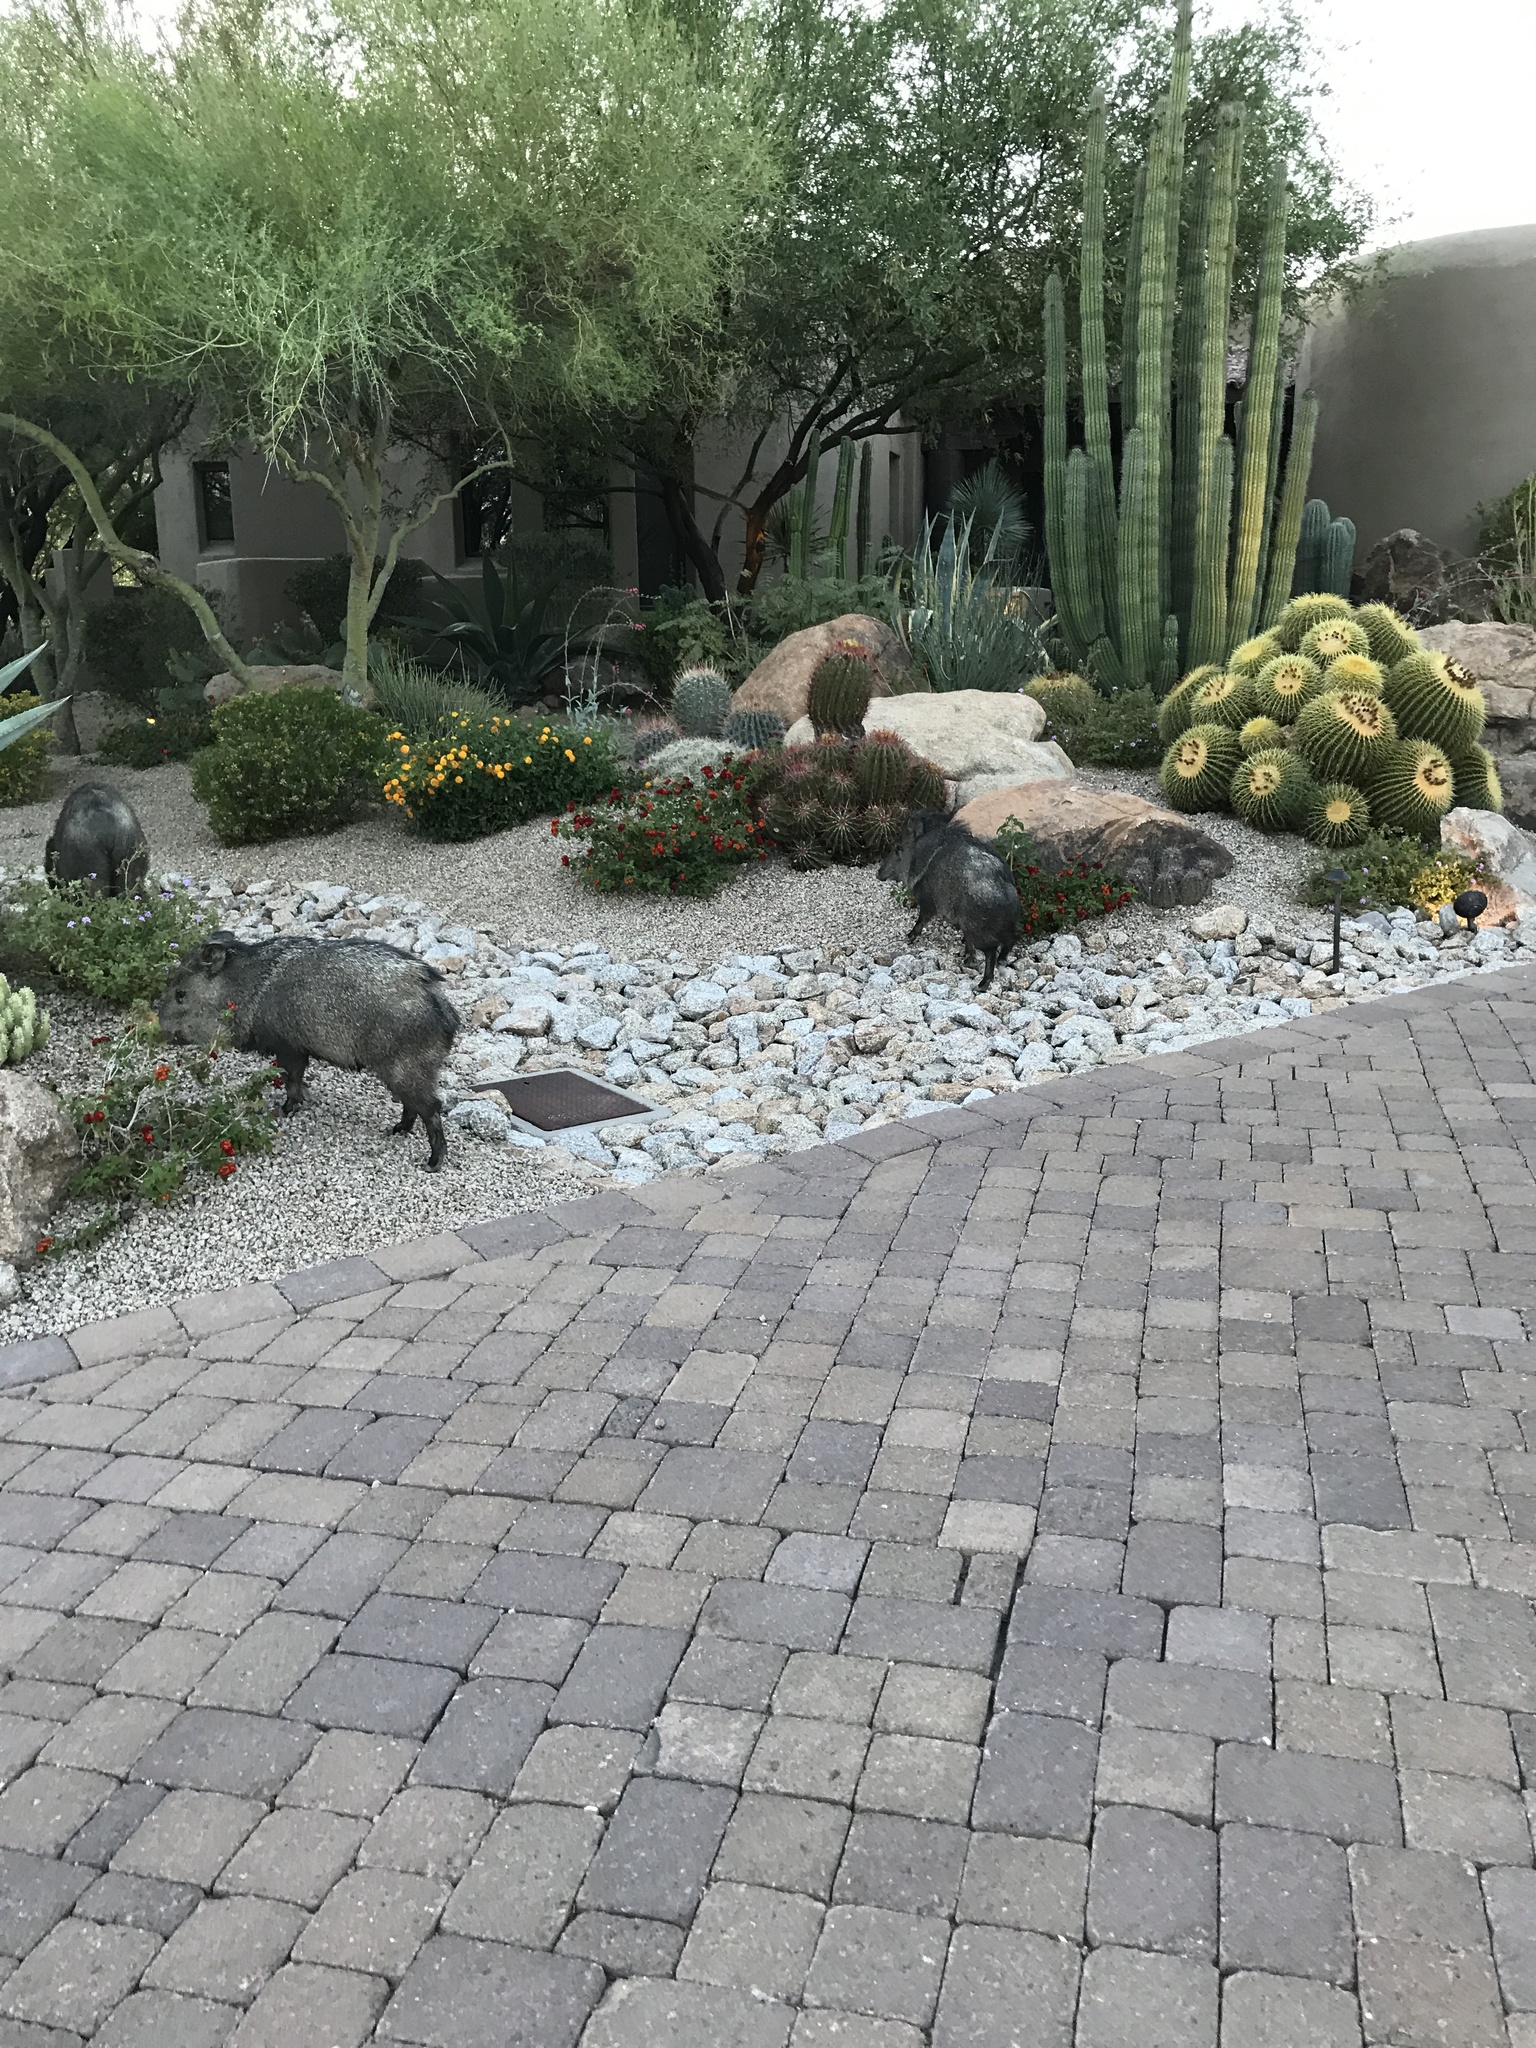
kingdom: Animalia
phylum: Chordata
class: Mammalia
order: Artiodactyla
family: Tayassuidae
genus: Pecari
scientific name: Pecari tajacu
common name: Collared peccary
